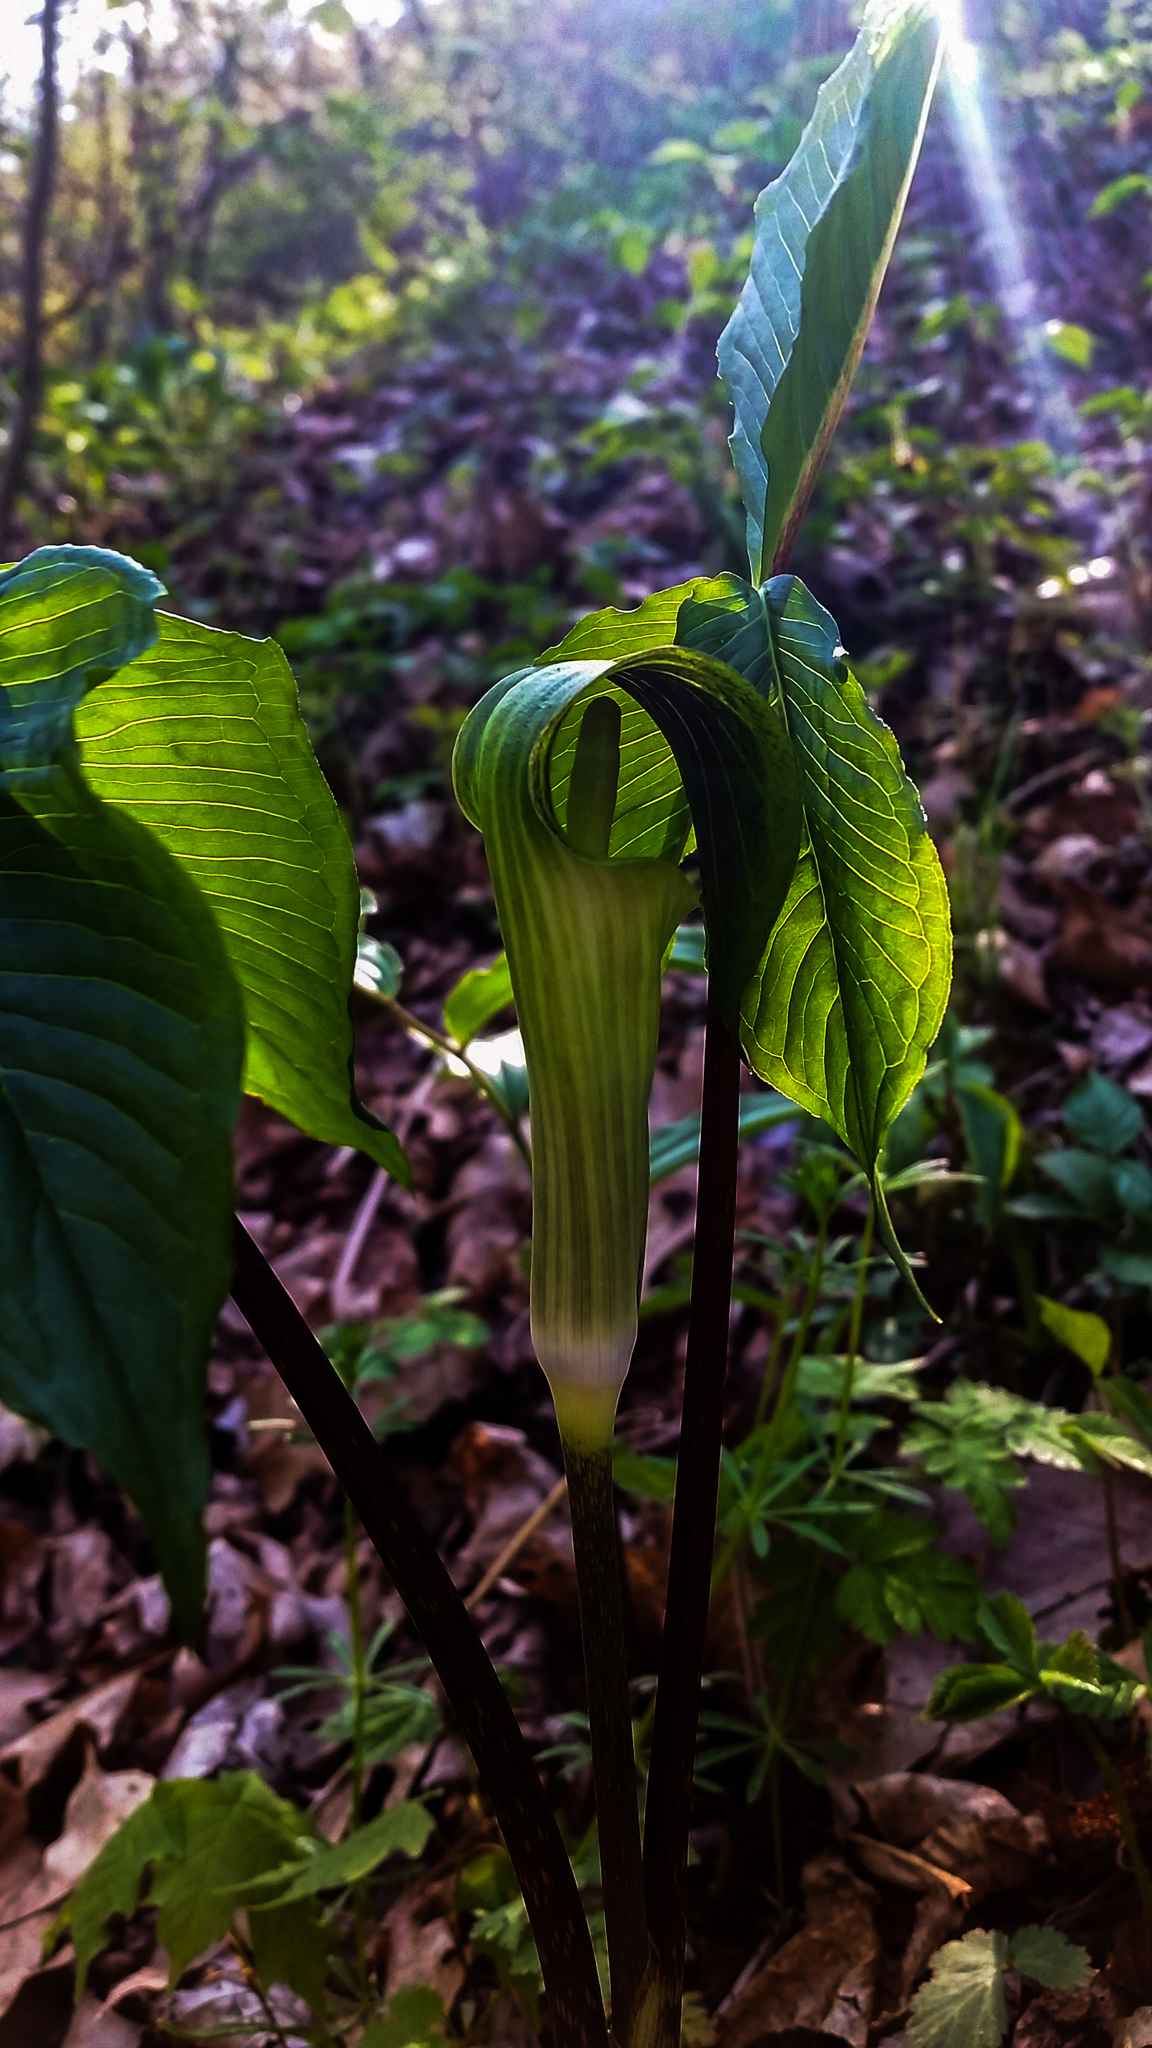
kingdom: Plantae
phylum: Tracheophyta
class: Liliopsida
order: Alismatales
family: Araceae
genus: Arisaema
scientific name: Arisaema triphyllum
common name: Jack-in-the-pulpit
